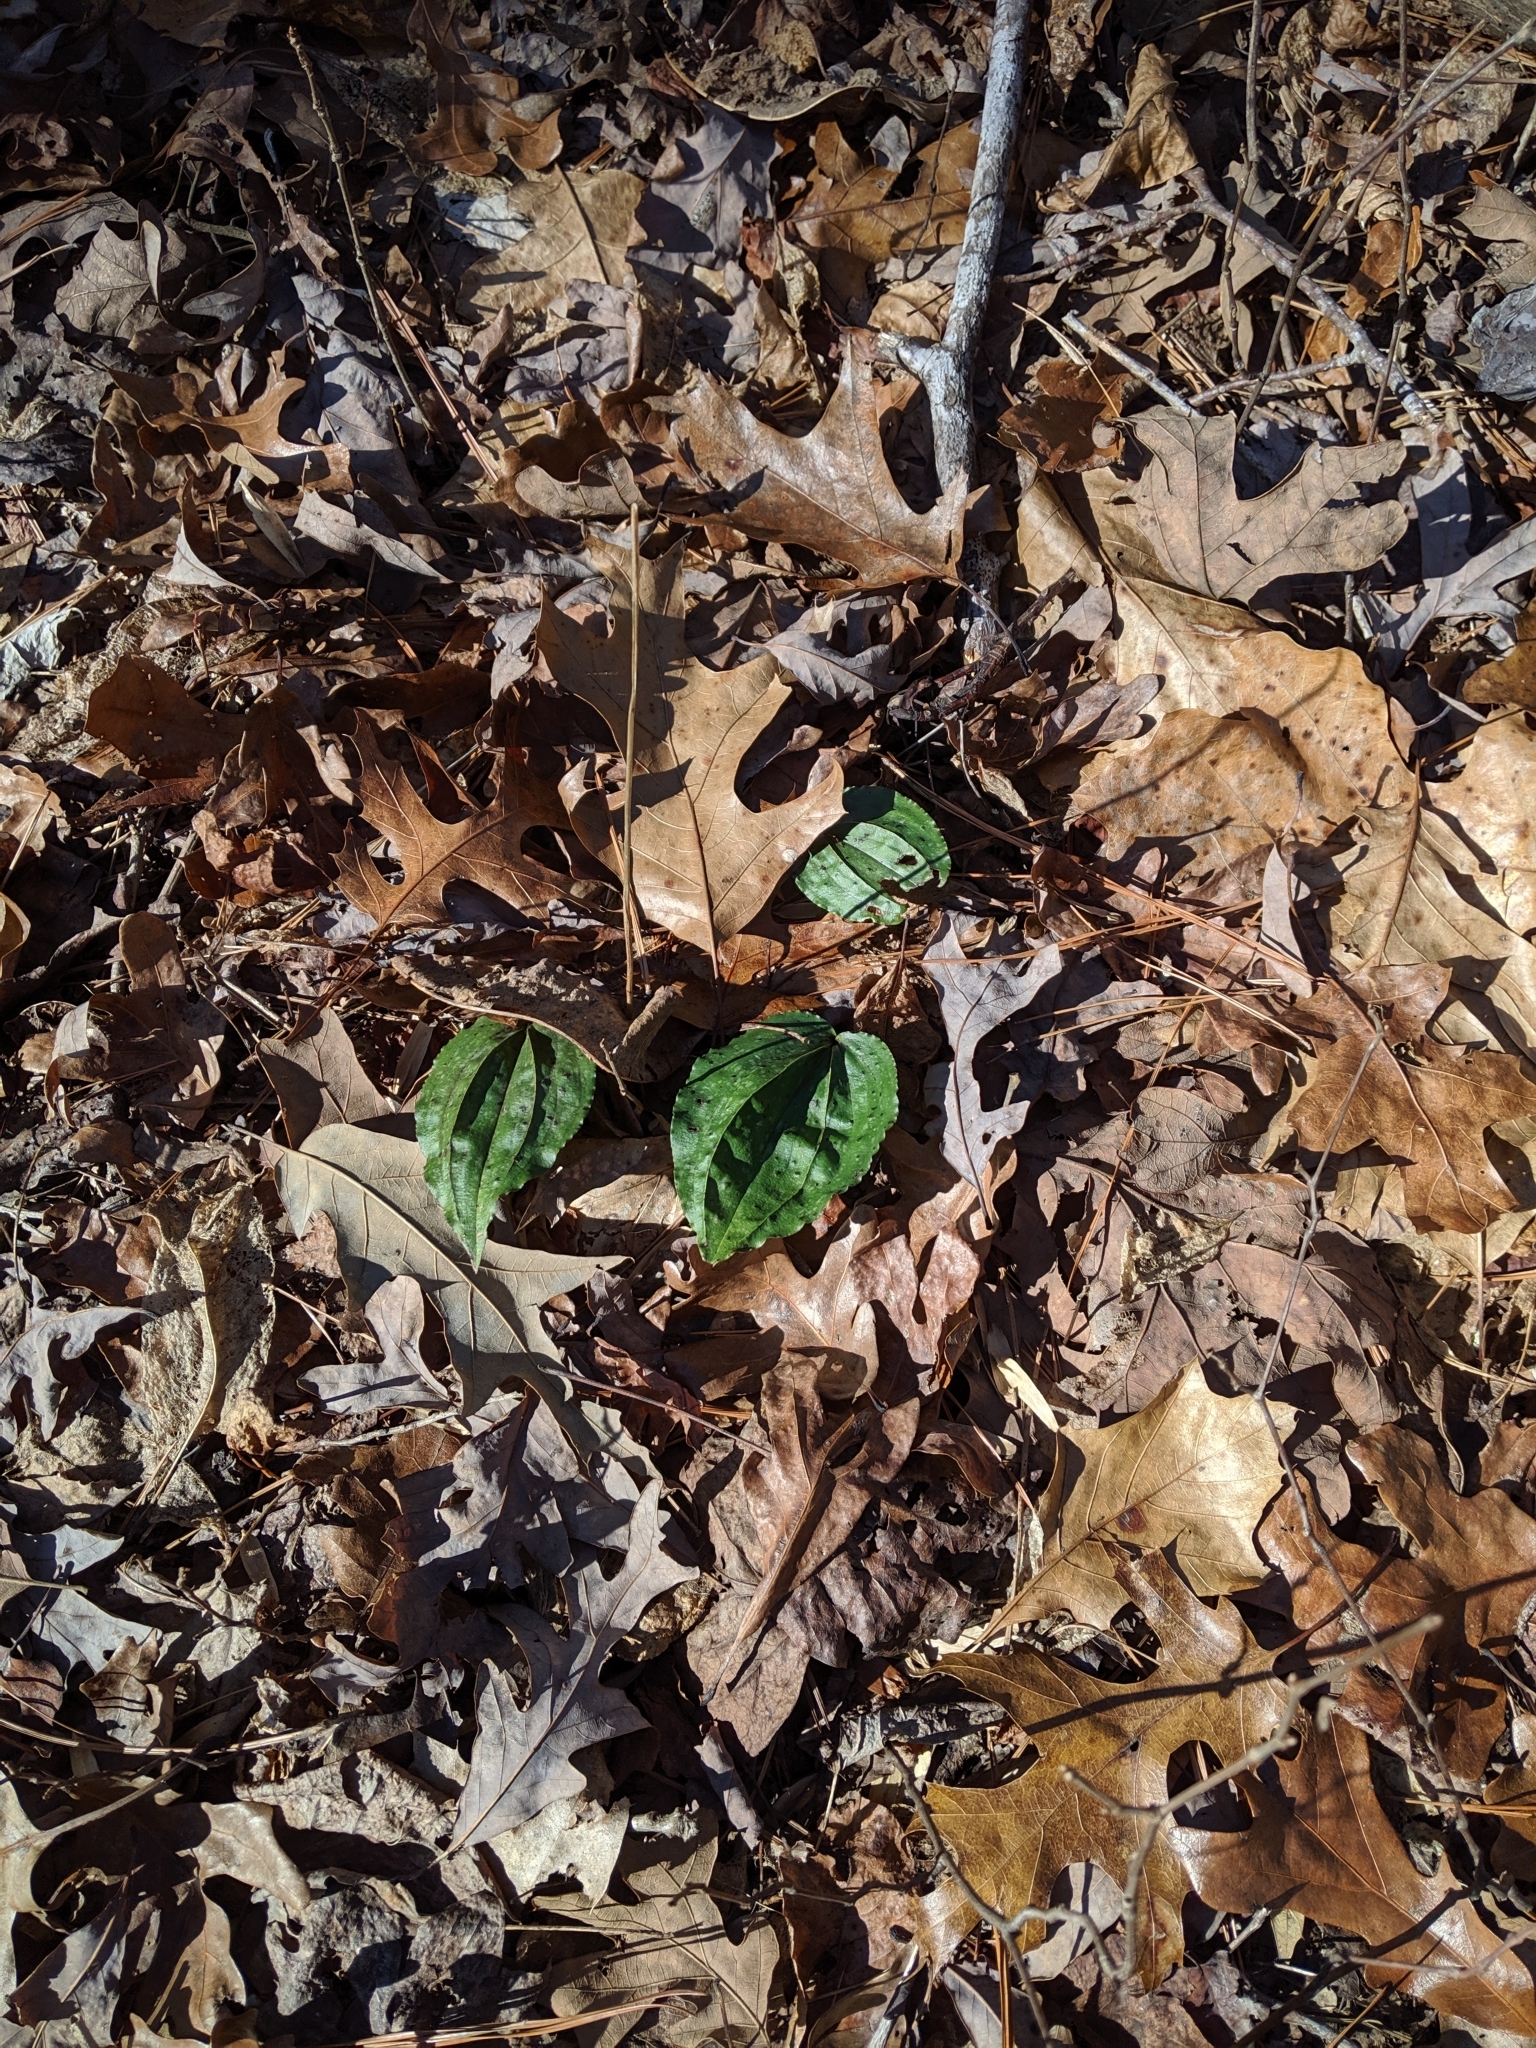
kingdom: Plantae
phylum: Tracheophyta
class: Liliopsida
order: Asparagales
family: Orchidaceae
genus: Tipularia
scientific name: Tipularia discolor
